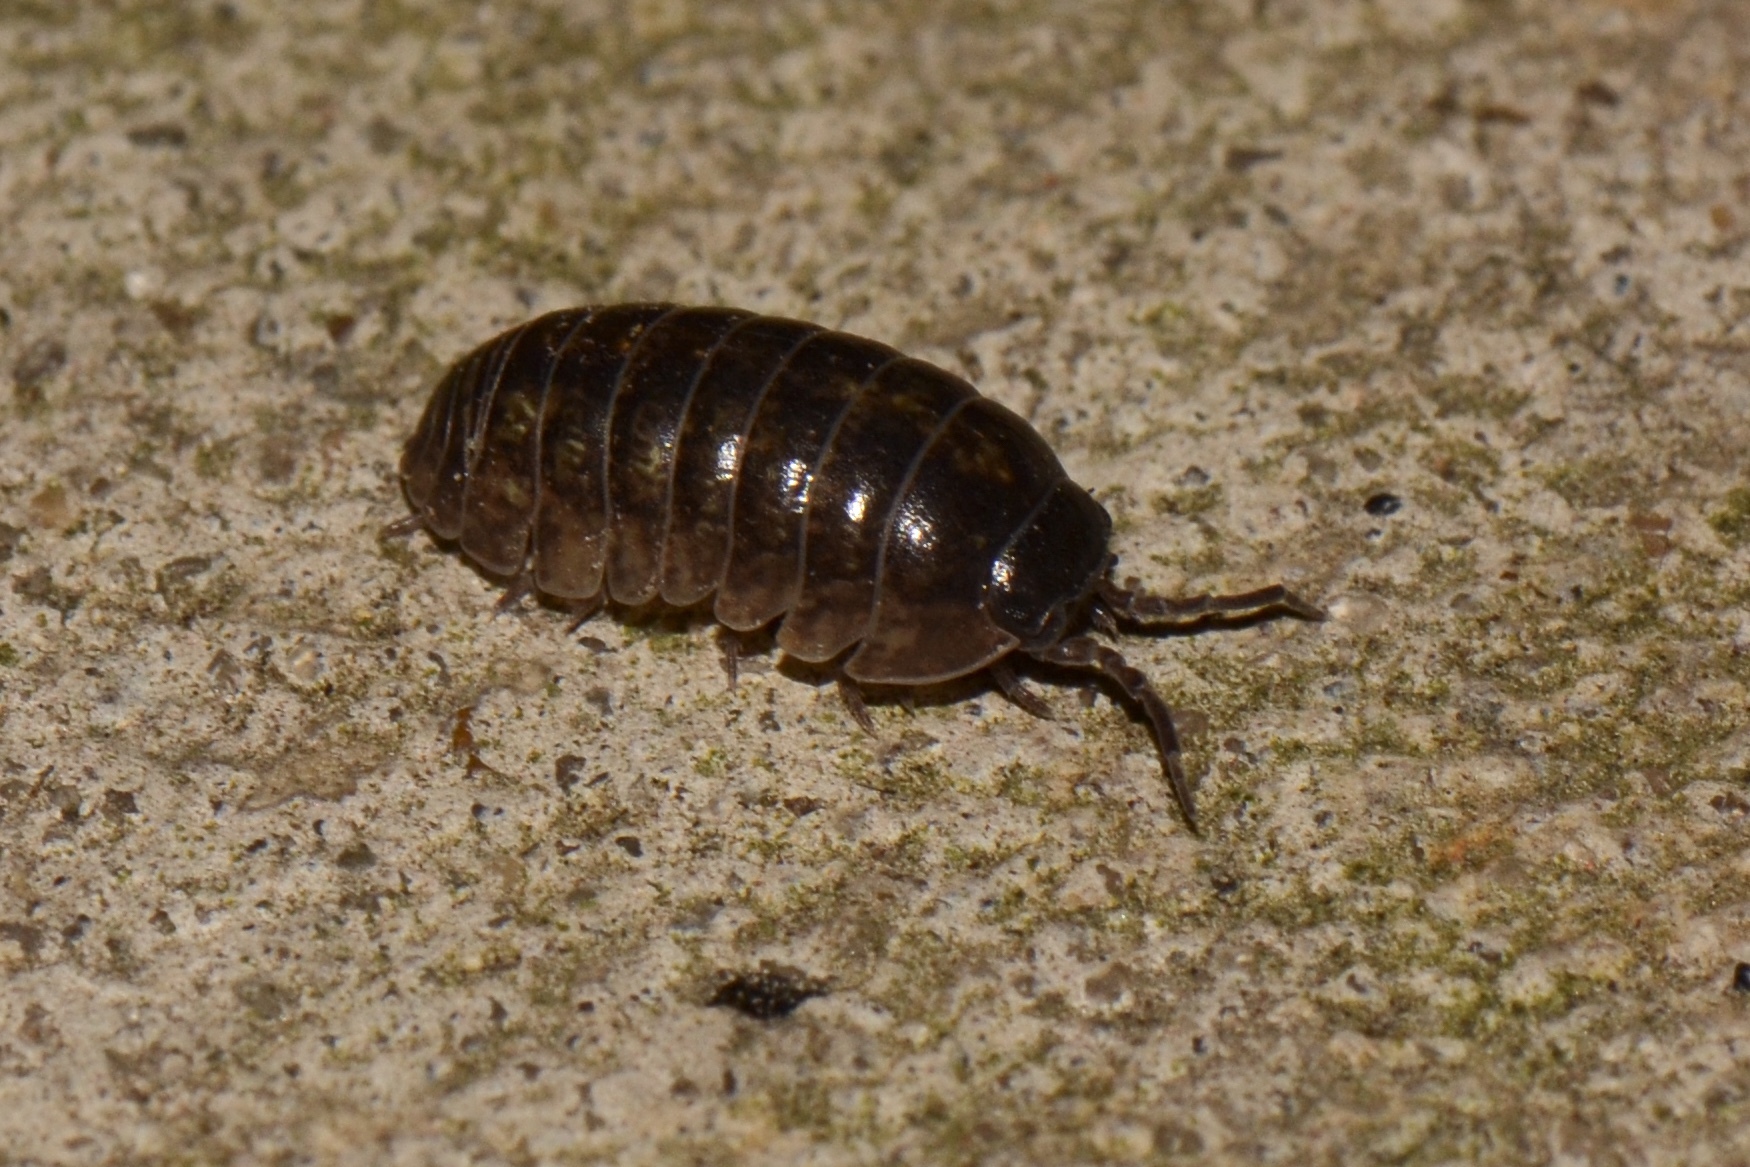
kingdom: Animalia
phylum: Arthropoda
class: Malacostraca
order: Isopoda
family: Armadillidiidae
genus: Armadillidium
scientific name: Armadillidium vulgare
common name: Common pill woodlouse
